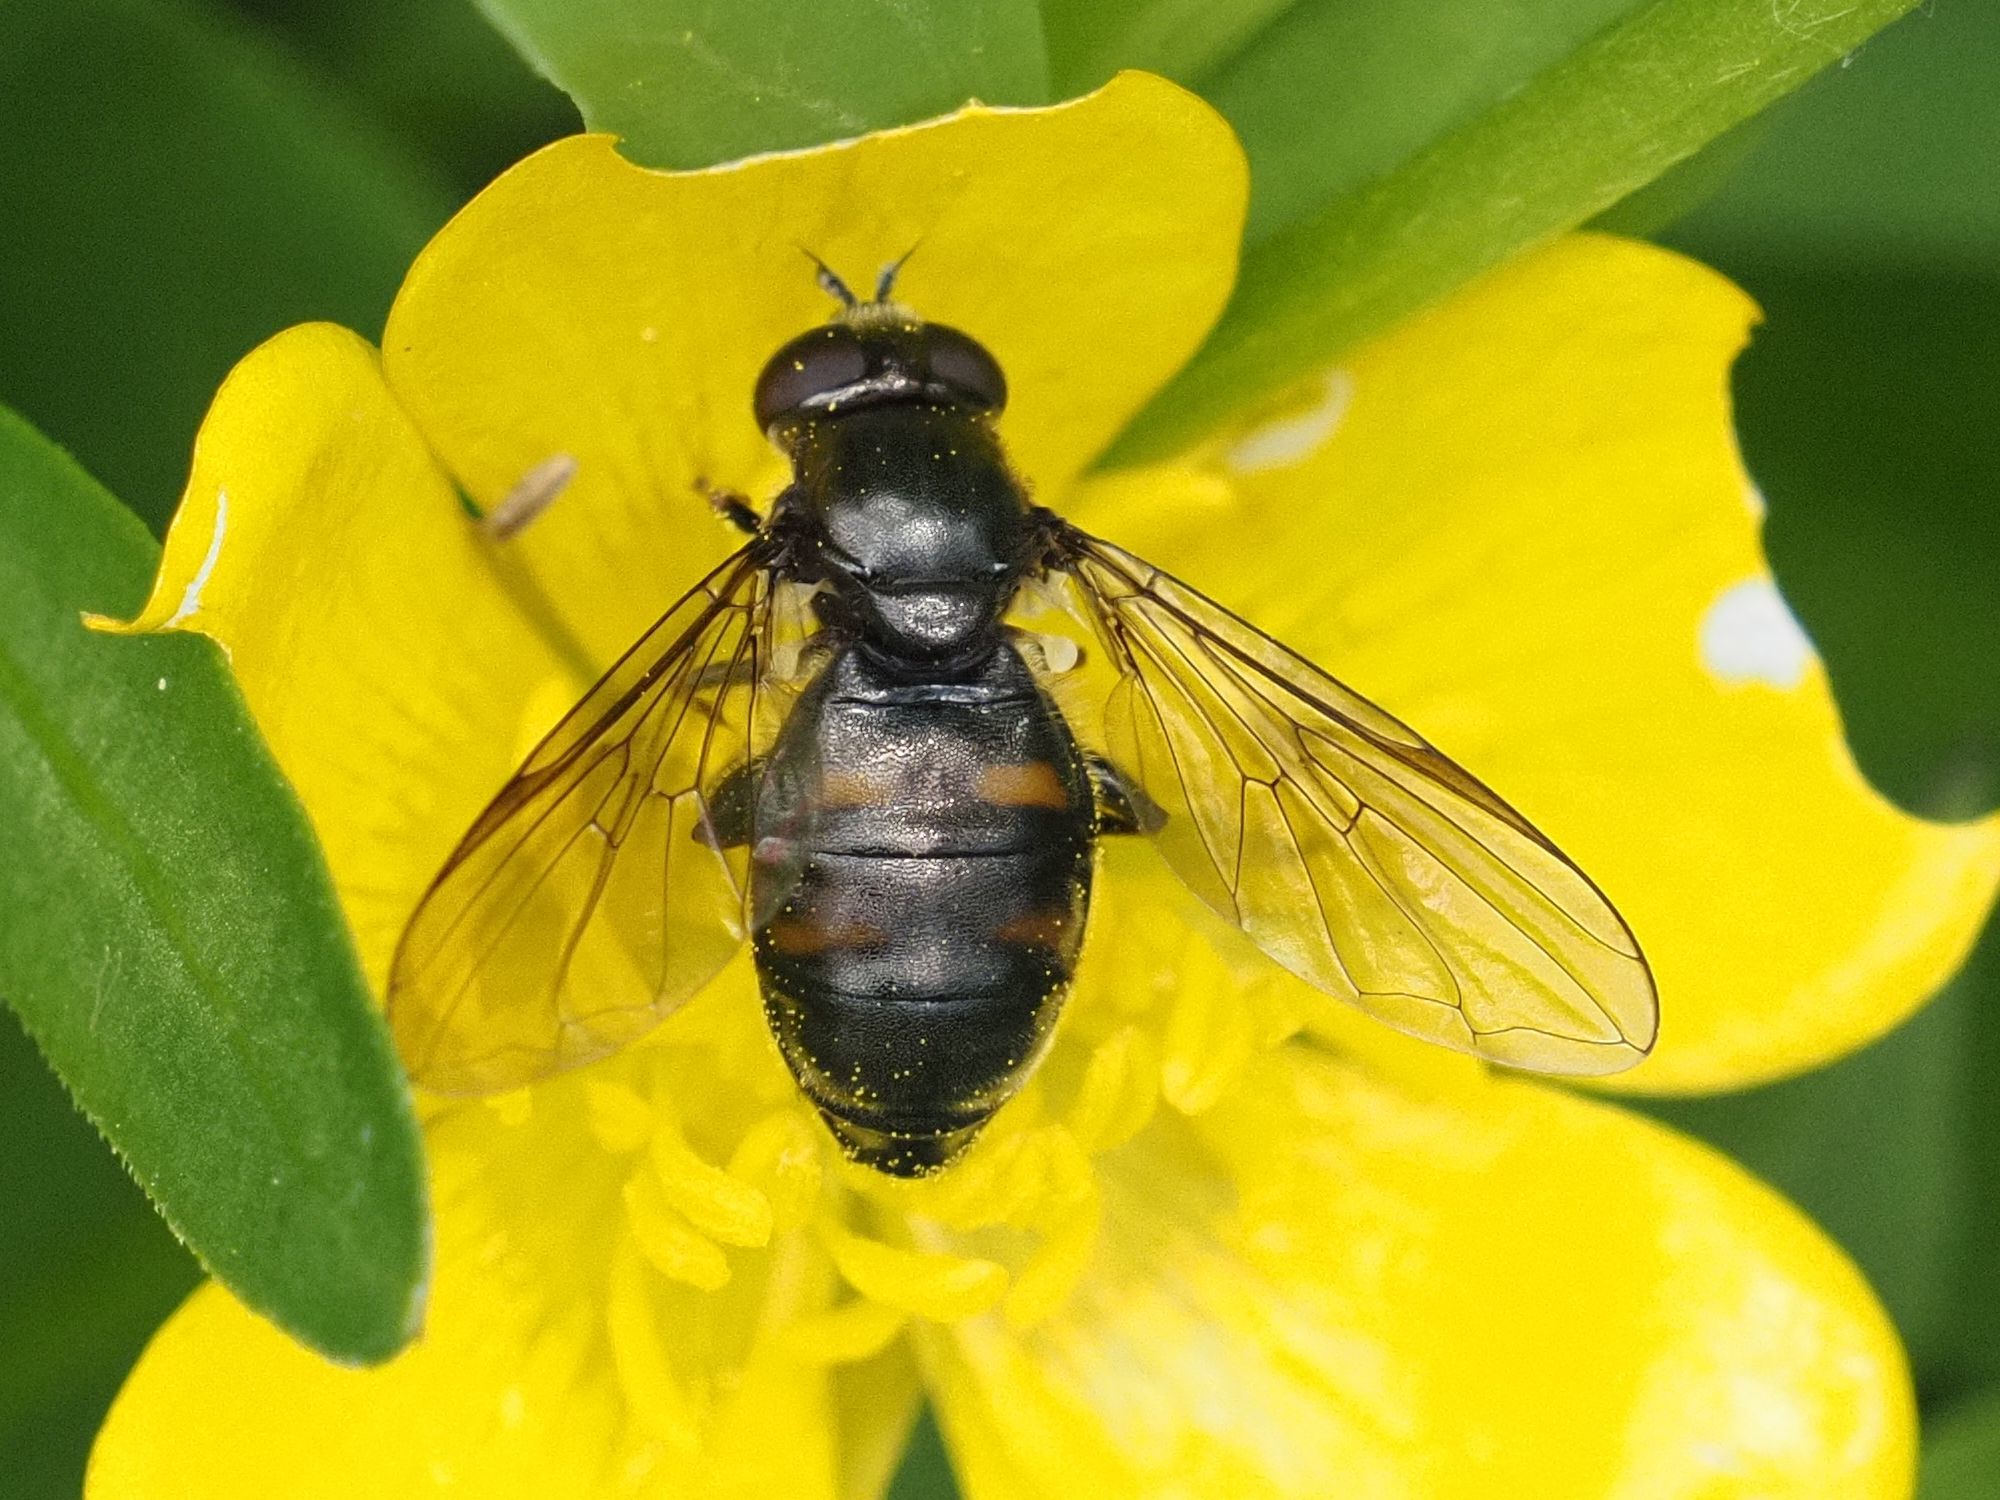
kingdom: Animalia
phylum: Arthropoda
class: Insecta
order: Diptera
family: Syrphidae
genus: Pipiza
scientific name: Pipiza quadrimaculata
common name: Four-spotted pipiza
